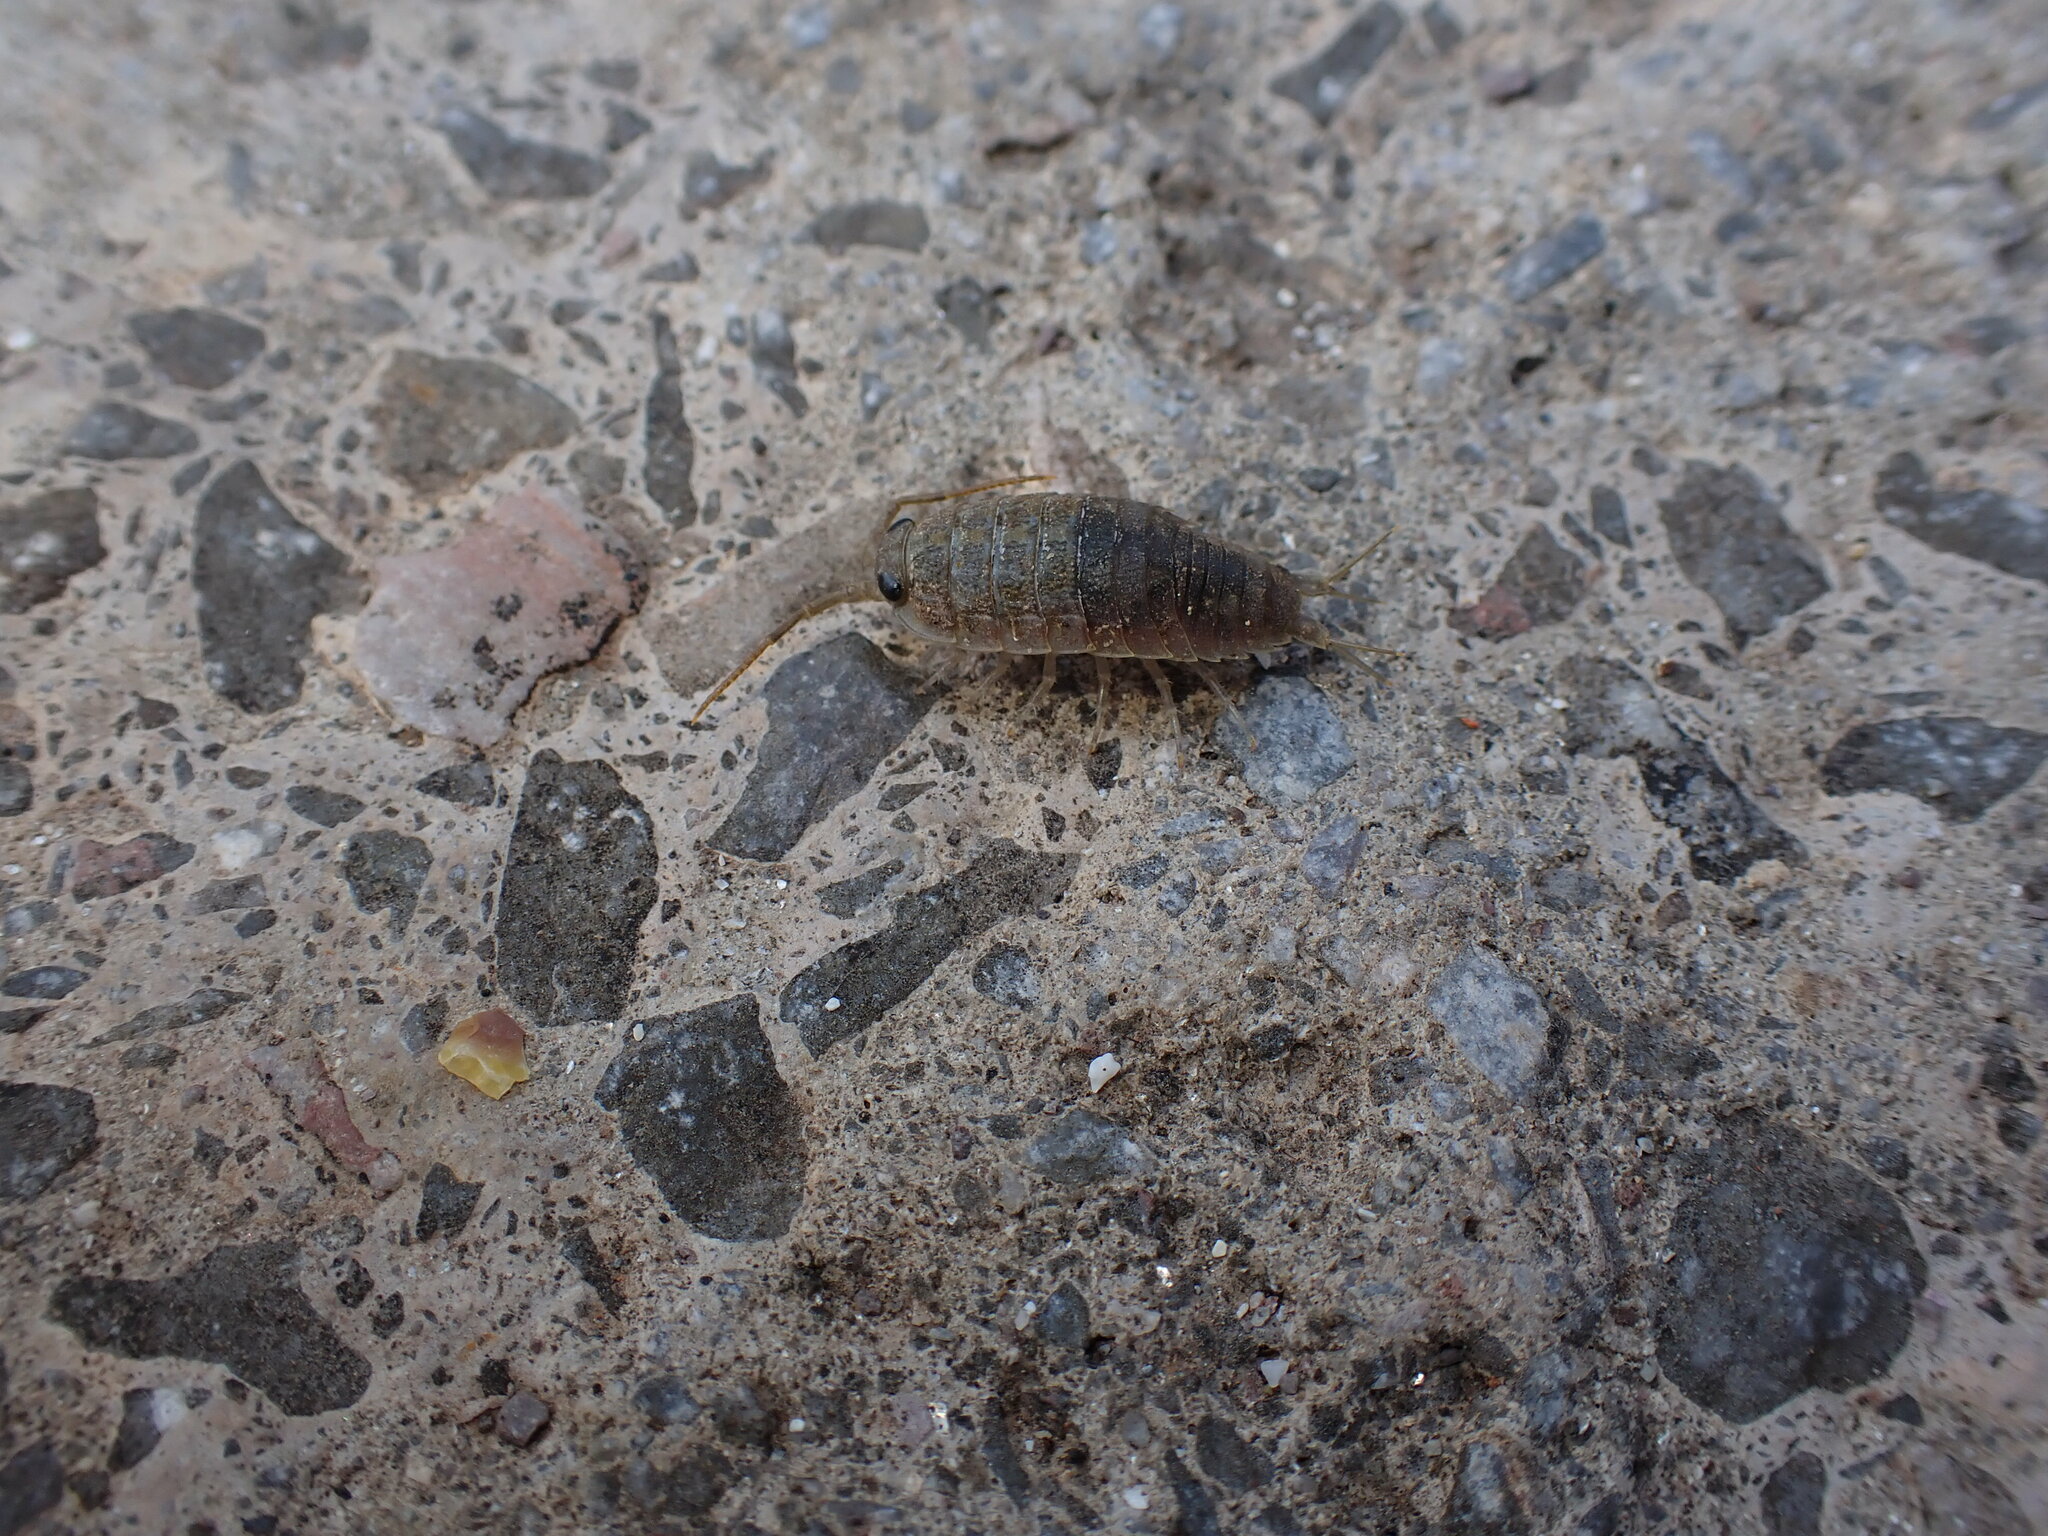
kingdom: Animalia
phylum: Arthropoda
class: Malacostraca
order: Isopoda
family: Ligiidae
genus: Ligia
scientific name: Ligia oceanica
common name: Sea slater
